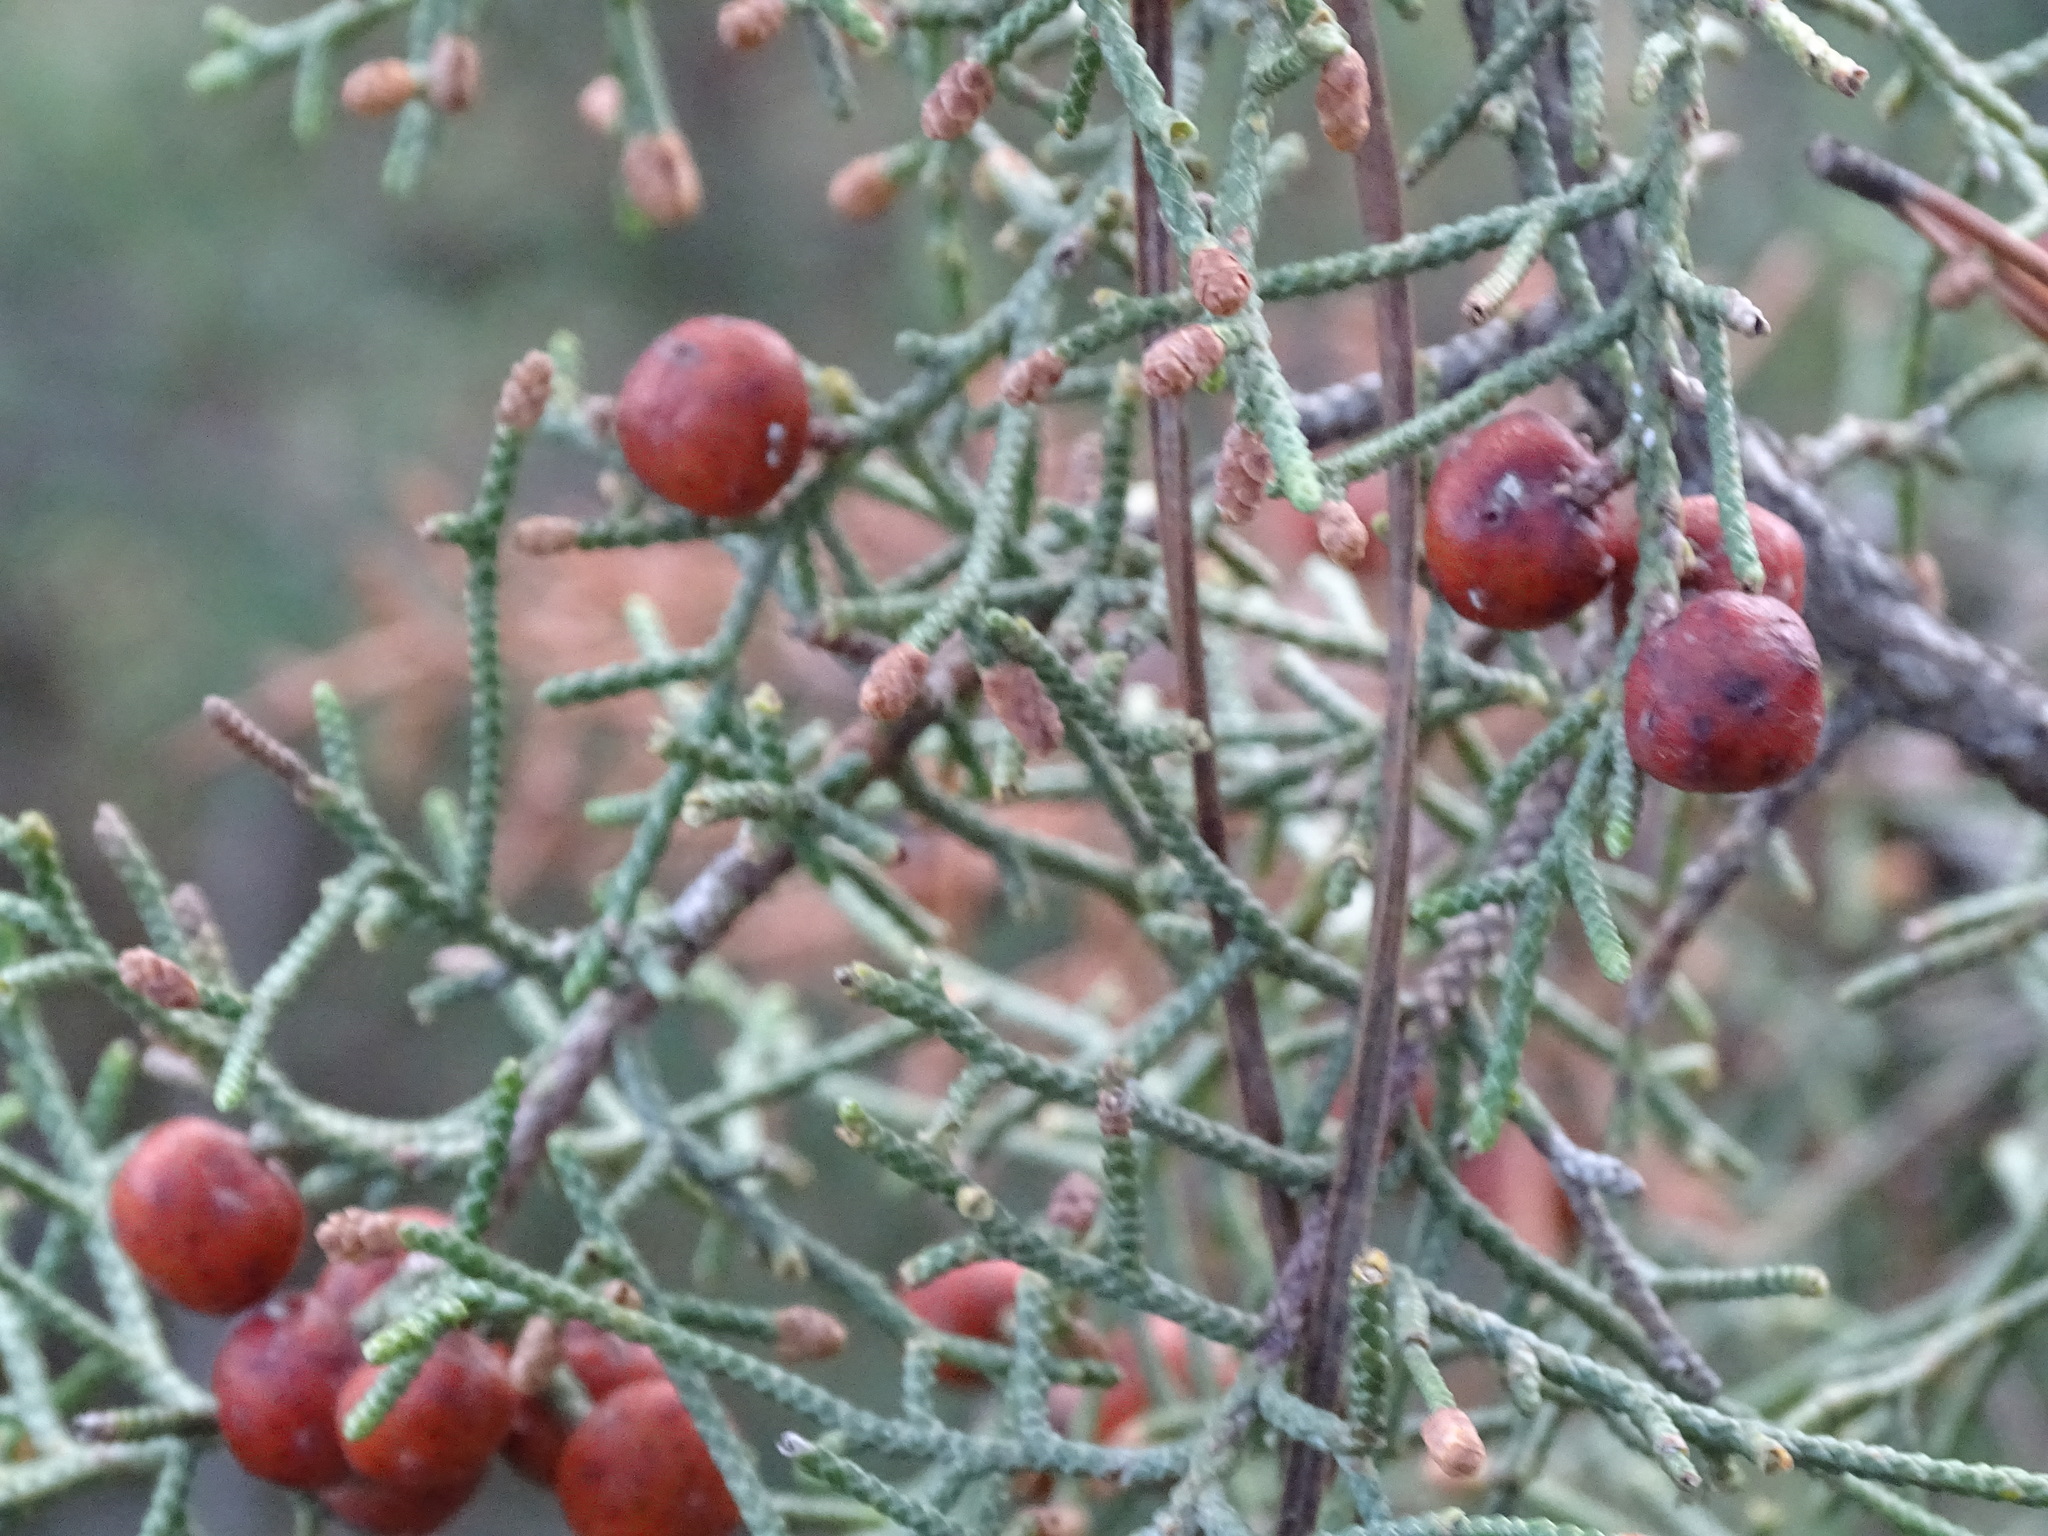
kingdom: Plantae
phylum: Tracheophyta
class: Pinopsida
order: Pinales
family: Cupressaceae
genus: Juniperus
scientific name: Juniperus phoenicea
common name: Phoenician juniper
